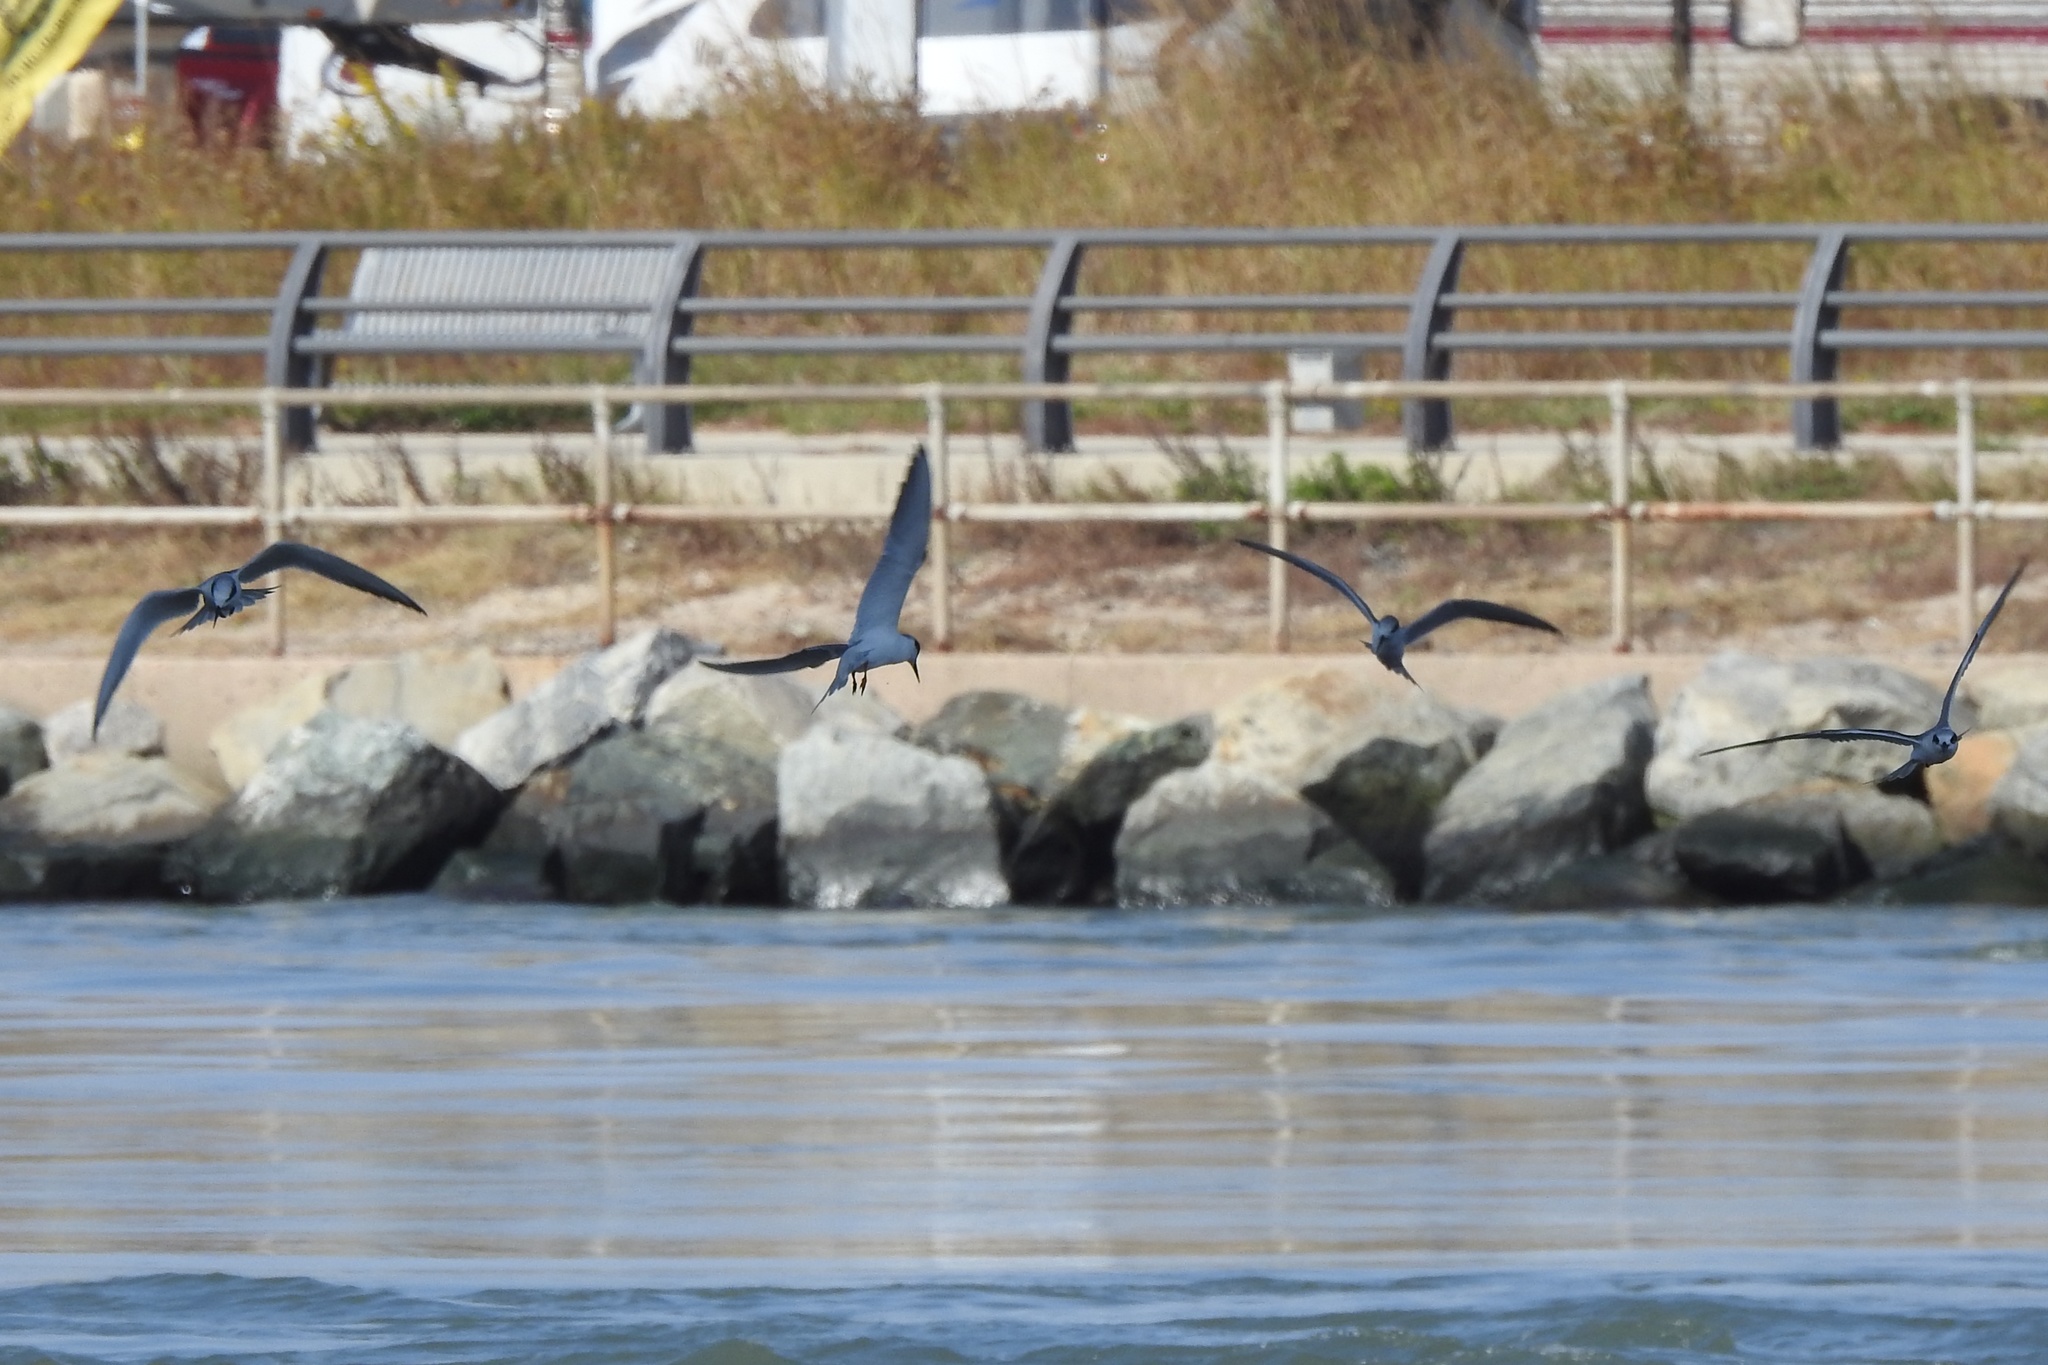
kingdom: Animalia
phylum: Chordata
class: Aves
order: Charadriiformes
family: Laridae
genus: Sterna
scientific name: Sterna forsteri
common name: Forster's tern
